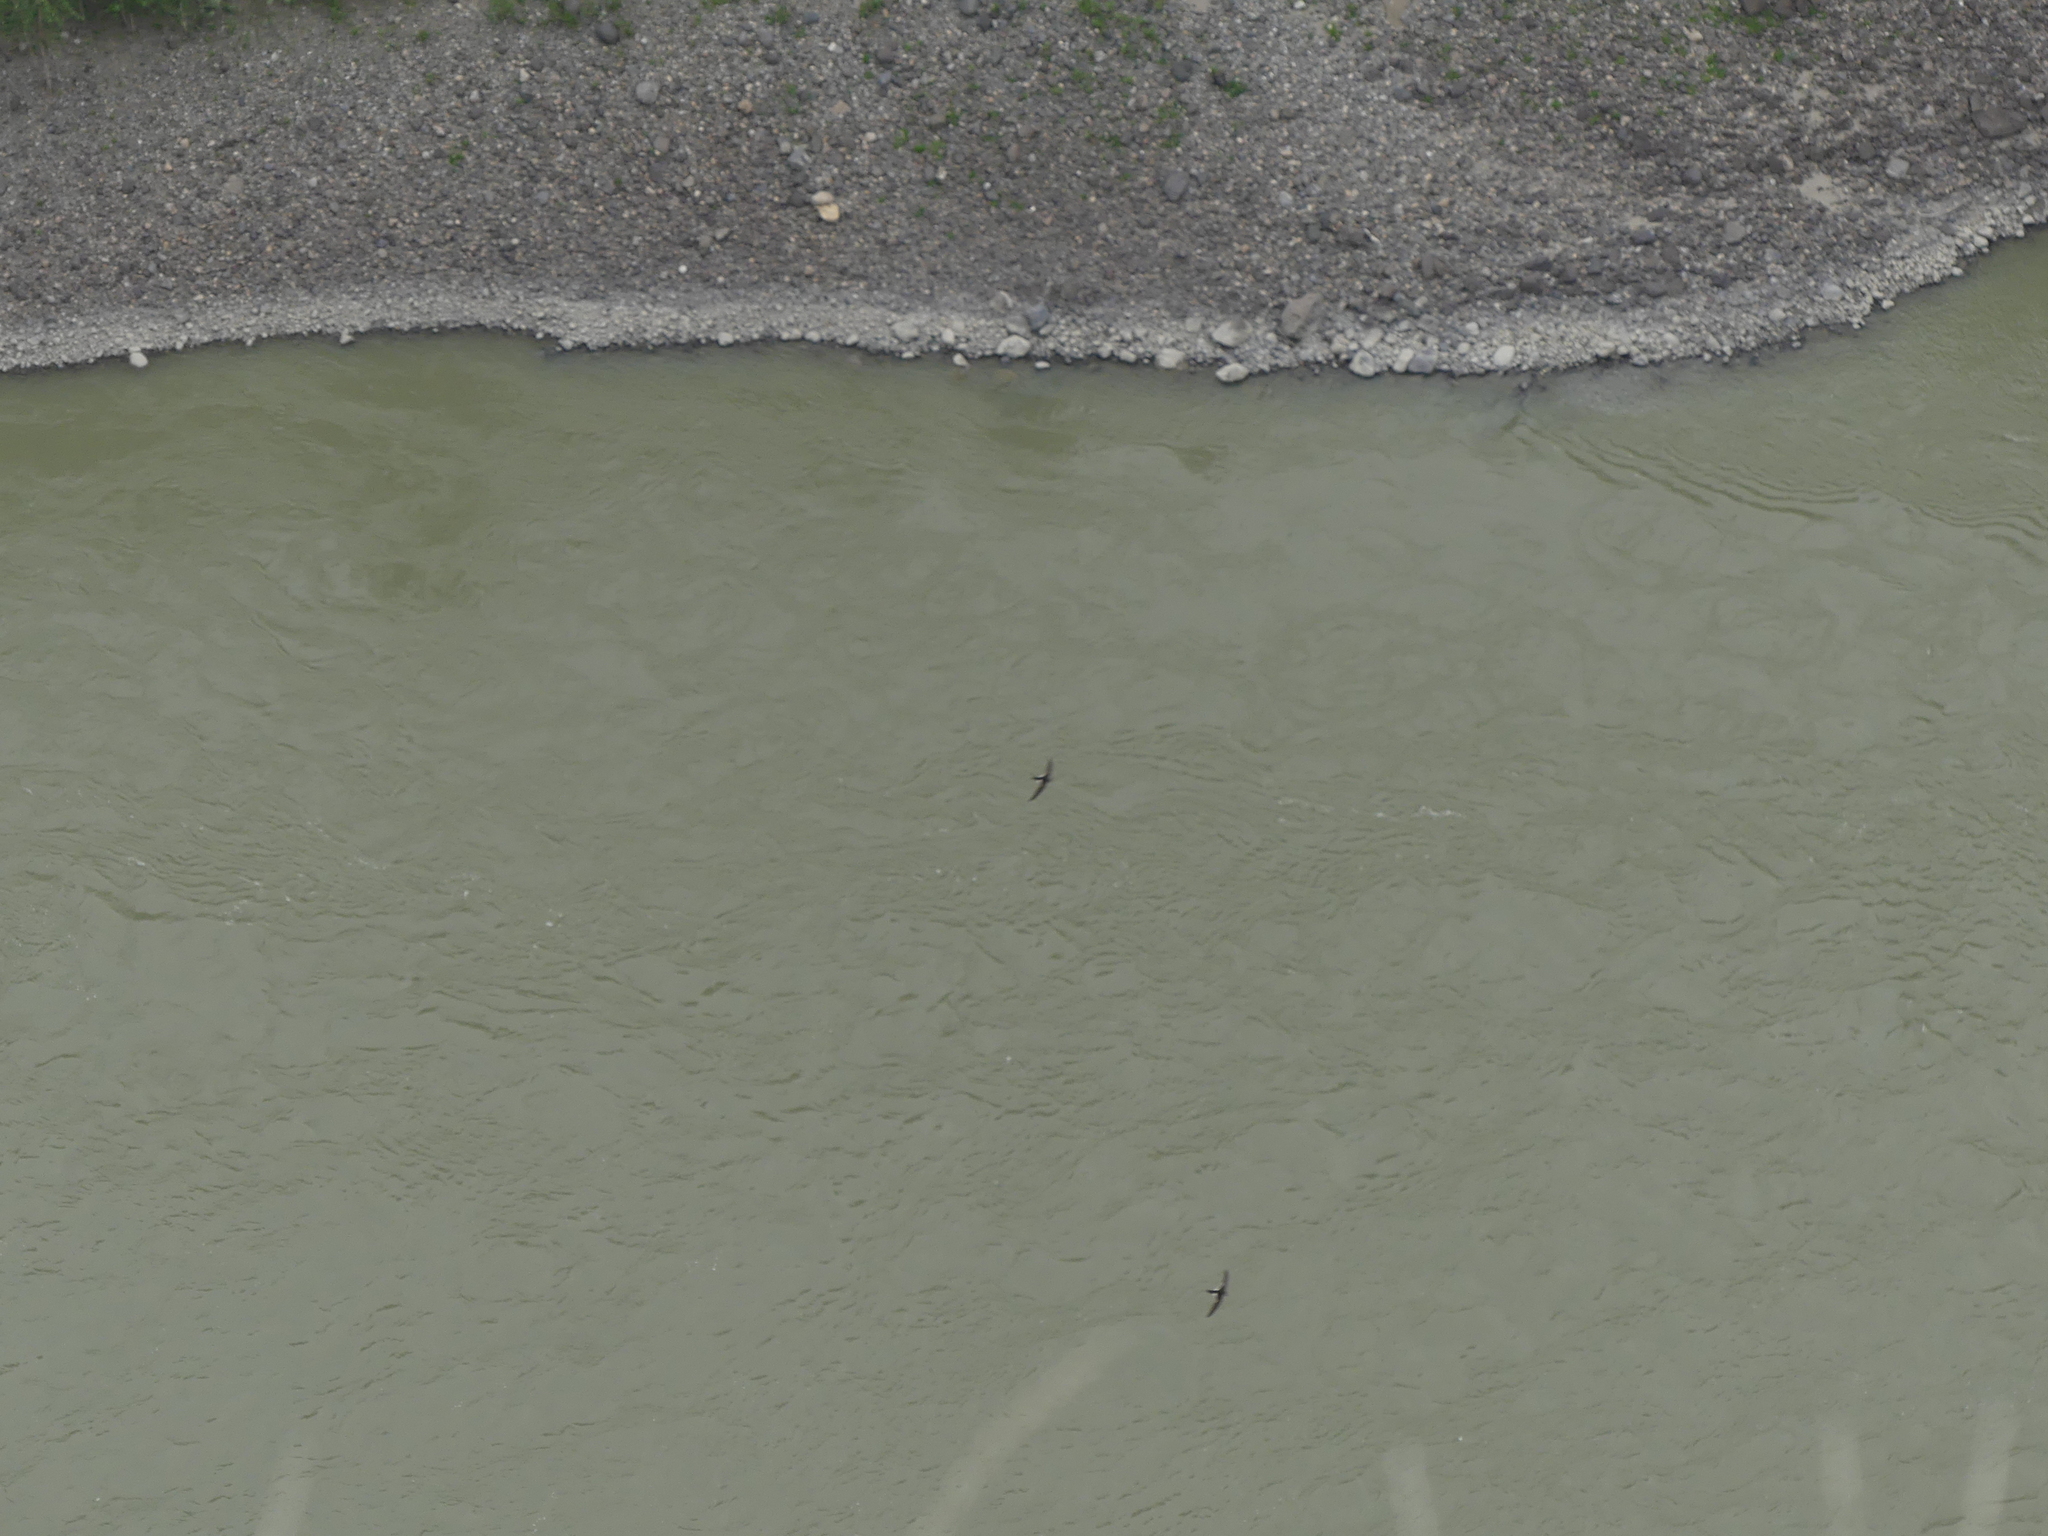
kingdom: Animalia
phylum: Chordata
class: Aves
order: Apodiformes
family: Apodidae
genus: Aeronautes
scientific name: Aeronautes saxatalis
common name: White-throated swift
